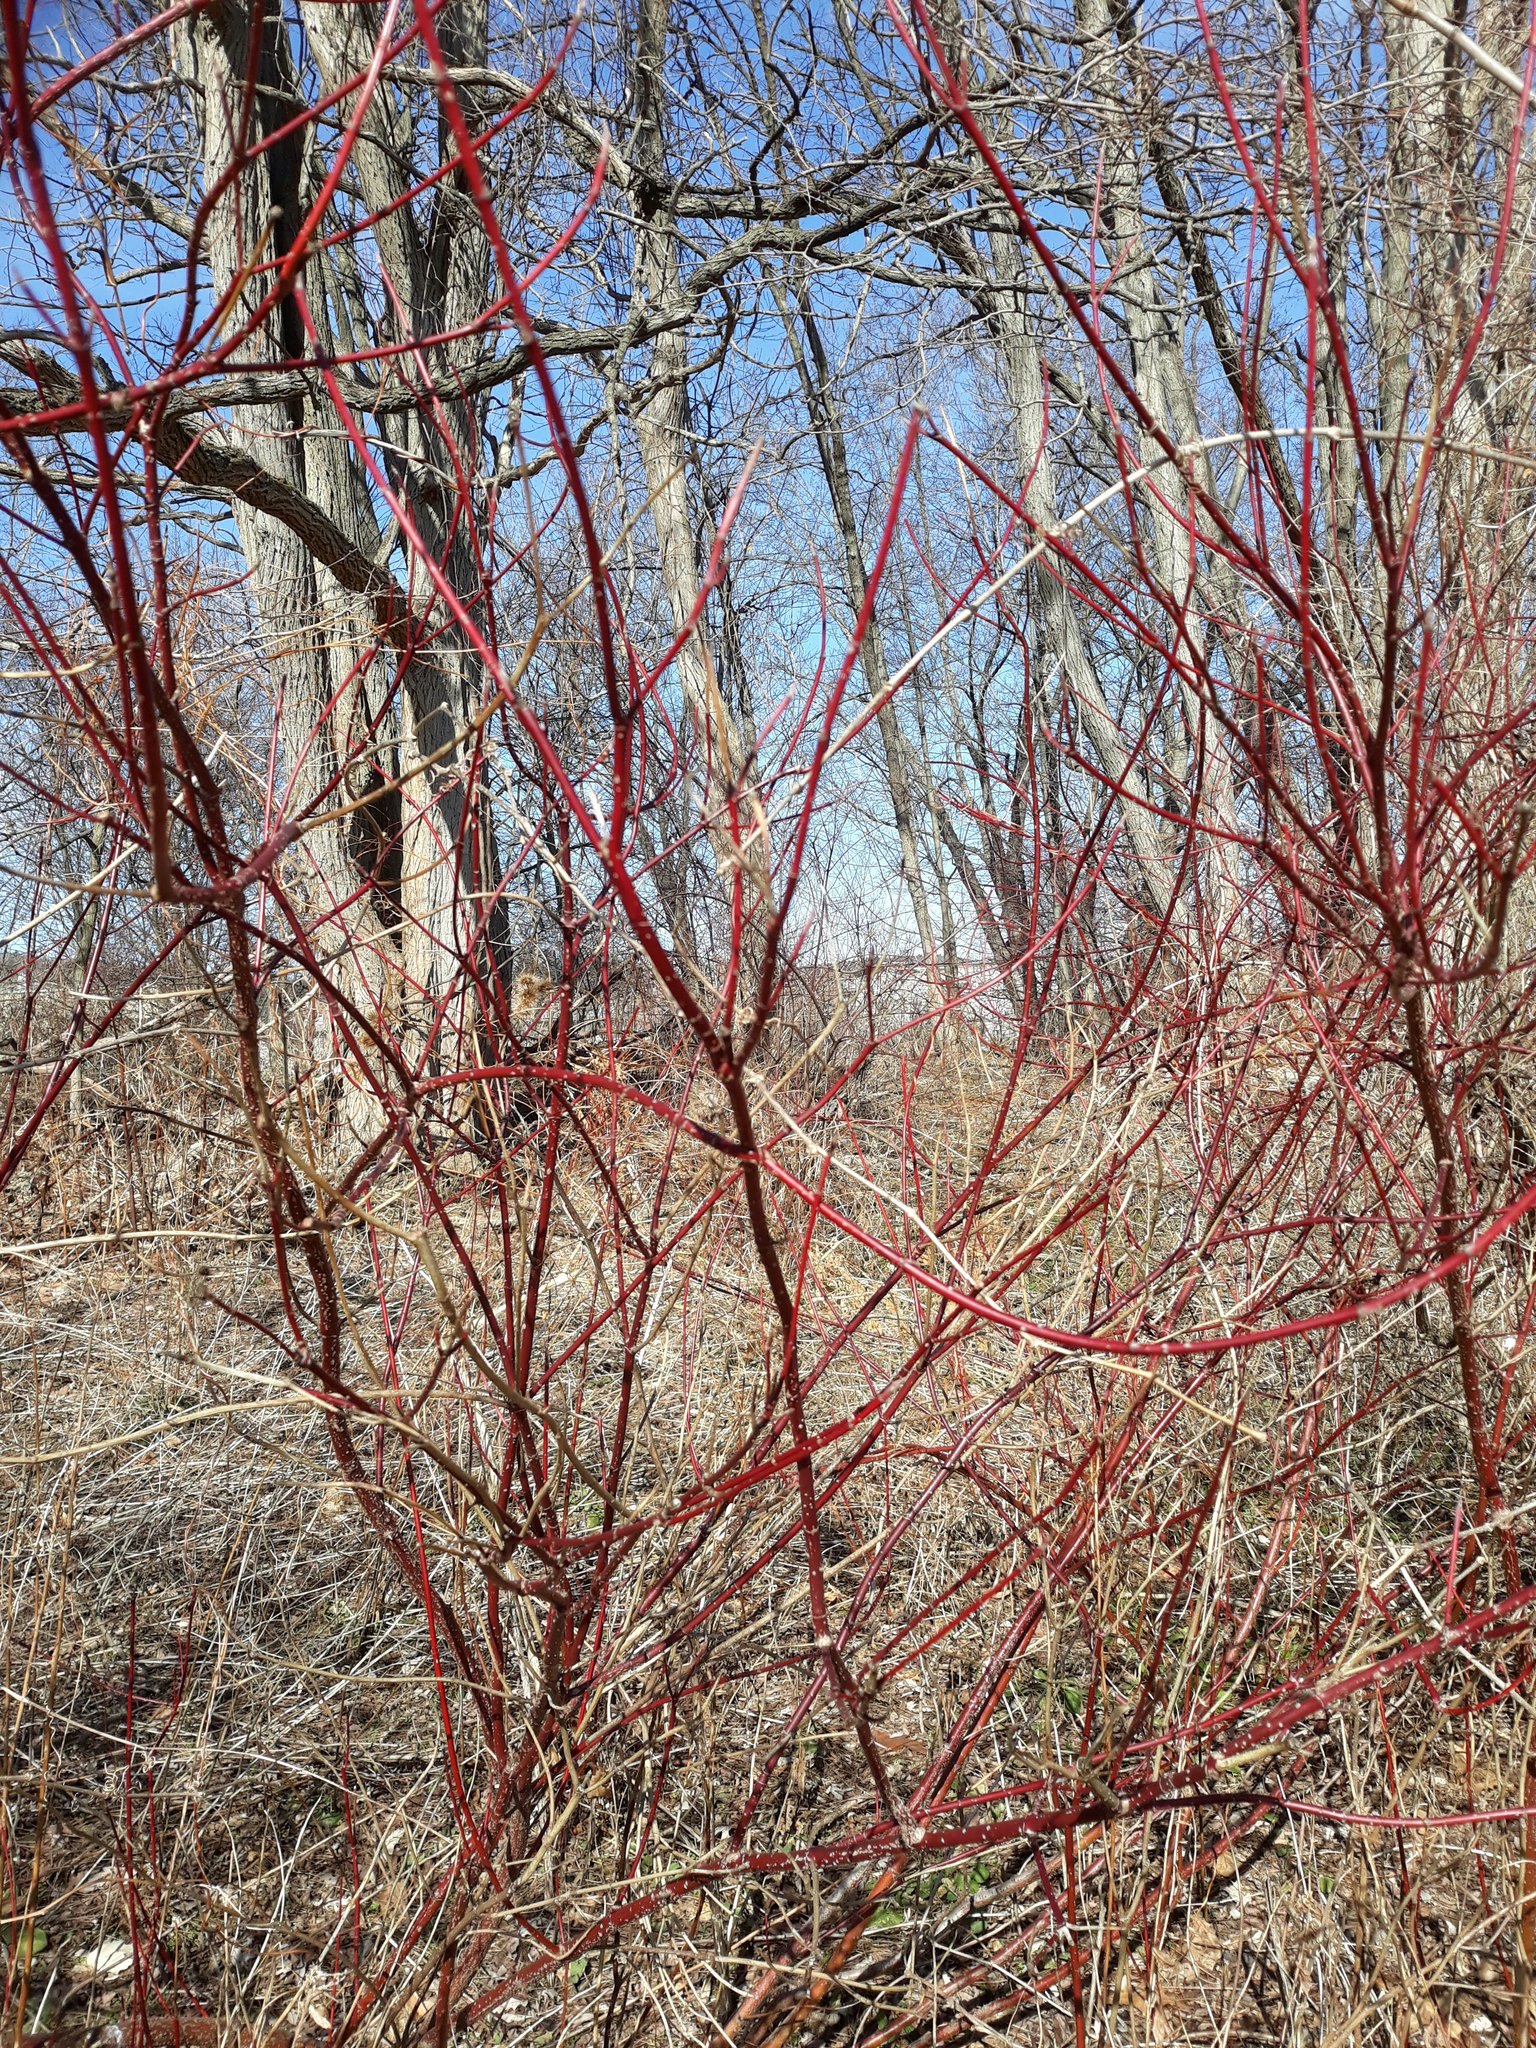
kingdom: Plantae
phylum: Tracheophyta
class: Magnoliopsida
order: Cornales
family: Cornaceae
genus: Cornus
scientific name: Cornus sericea
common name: Red-osier dogwood
